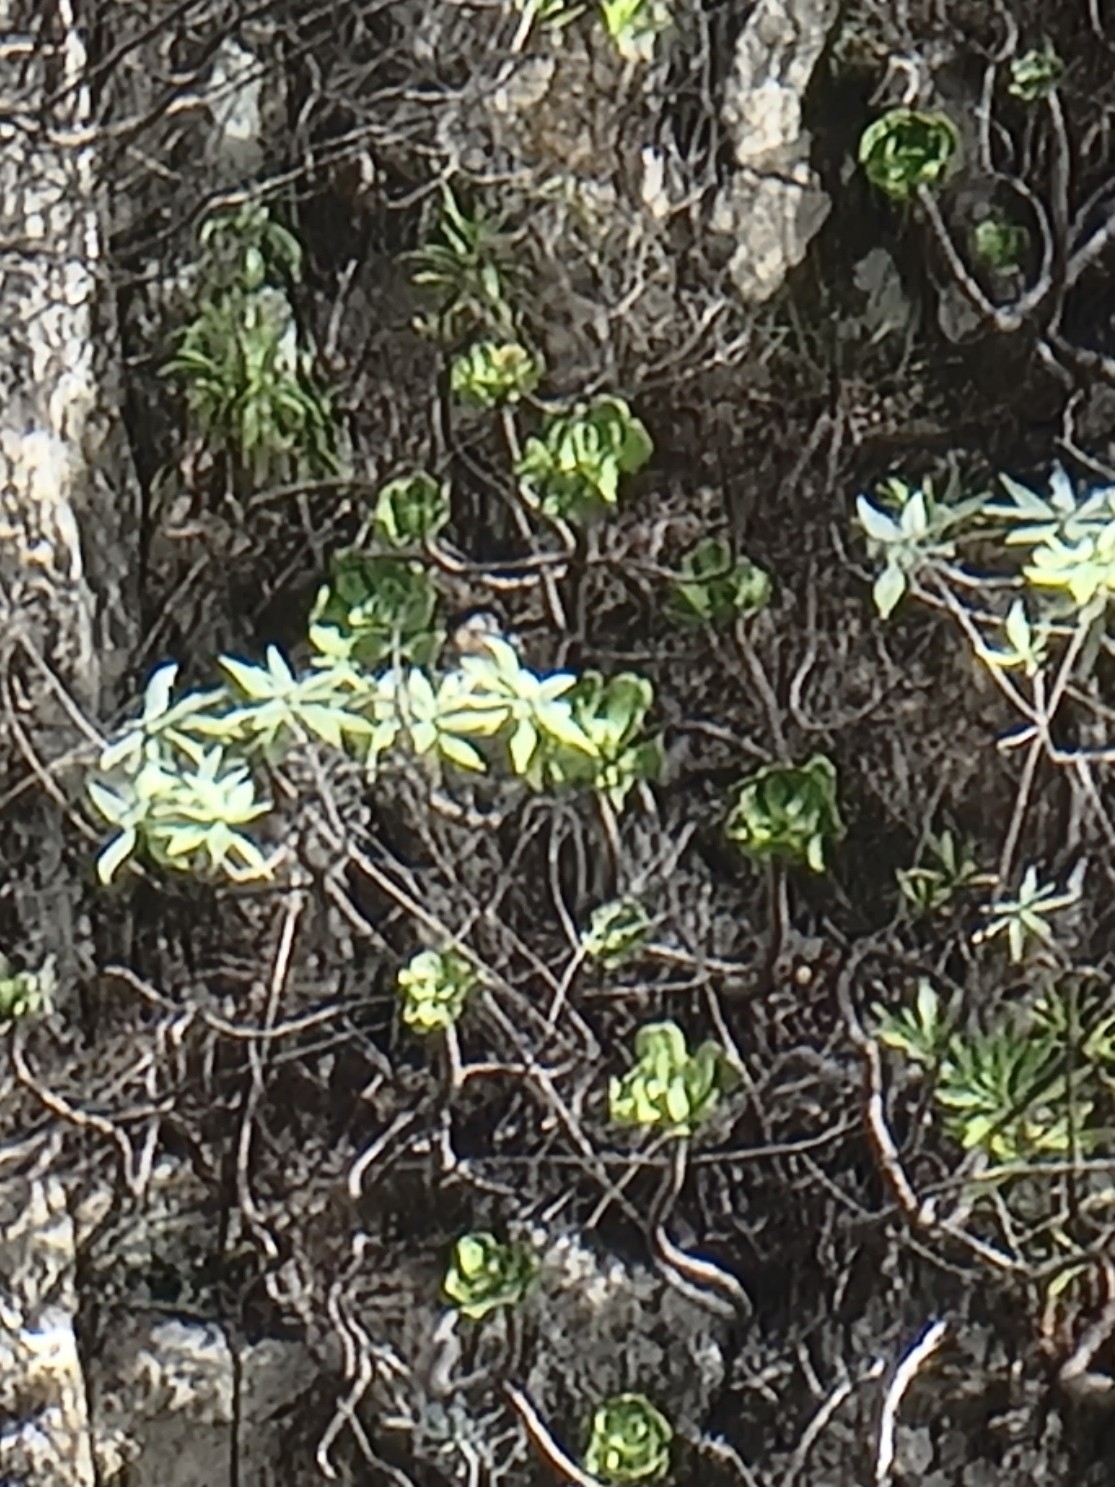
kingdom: Plantae
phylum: Tracheophyta
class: Magnoliopsida
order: Asterales
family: Asteraceae
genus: Helichrysum
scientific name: Helichrysum melaleucum
